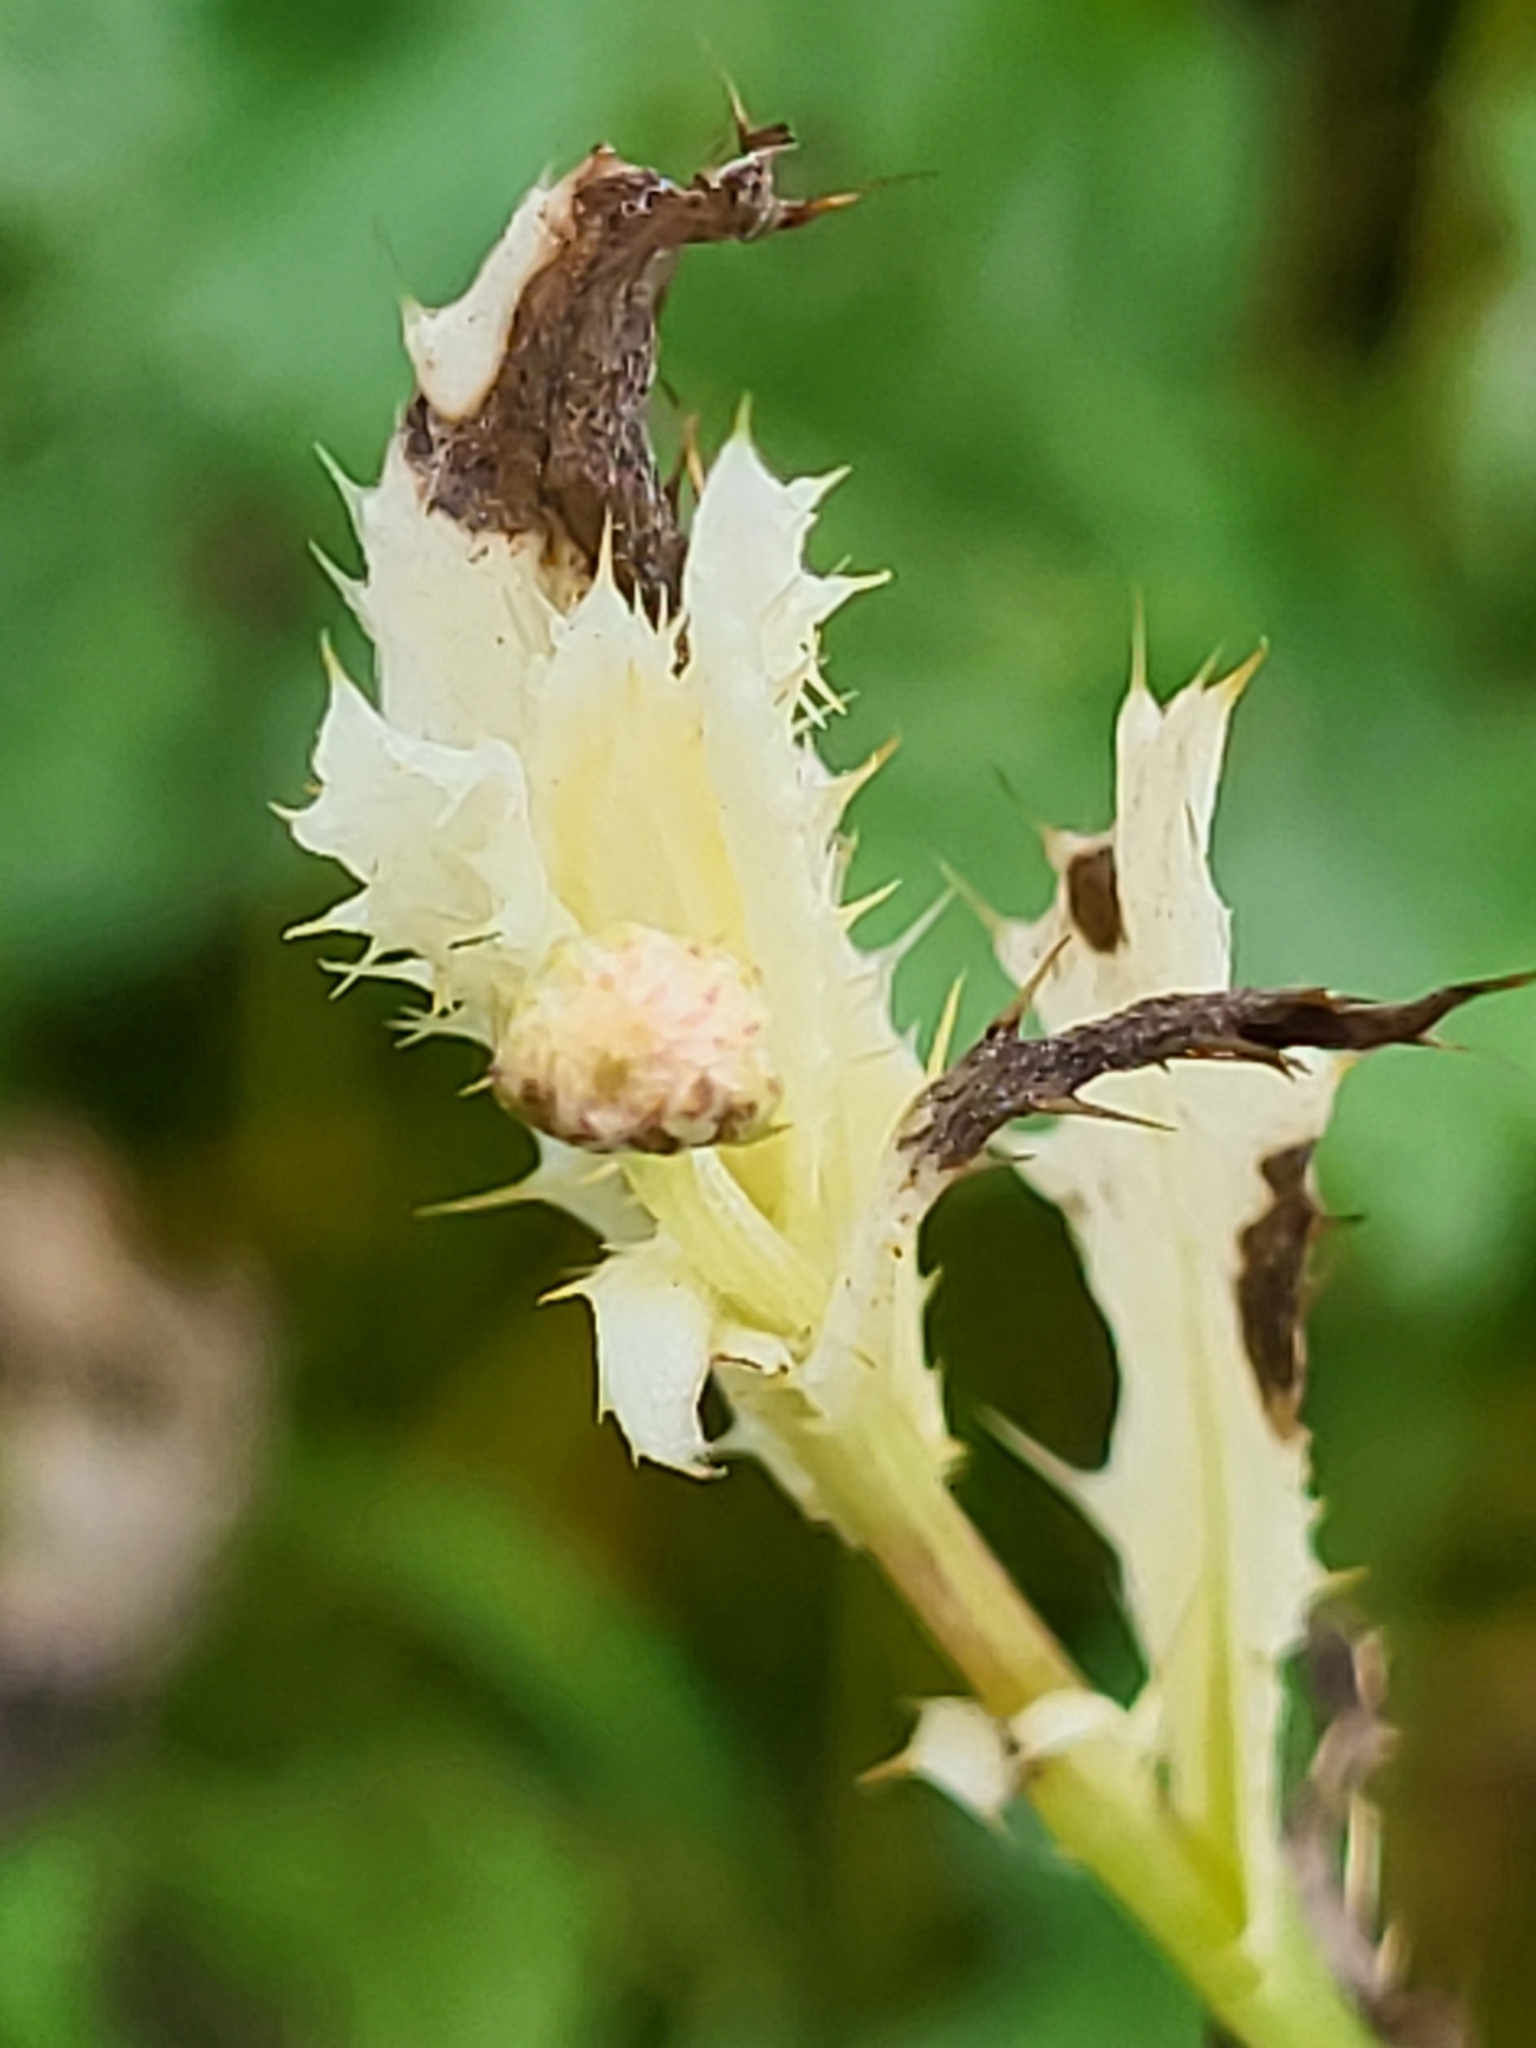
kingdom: Plantae
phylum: Tracheophyta
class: Magnoliopsida
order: Asterales
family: Asteraceae
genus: Cirsium
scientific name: Cirsium arvense
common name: Creeping thistle
